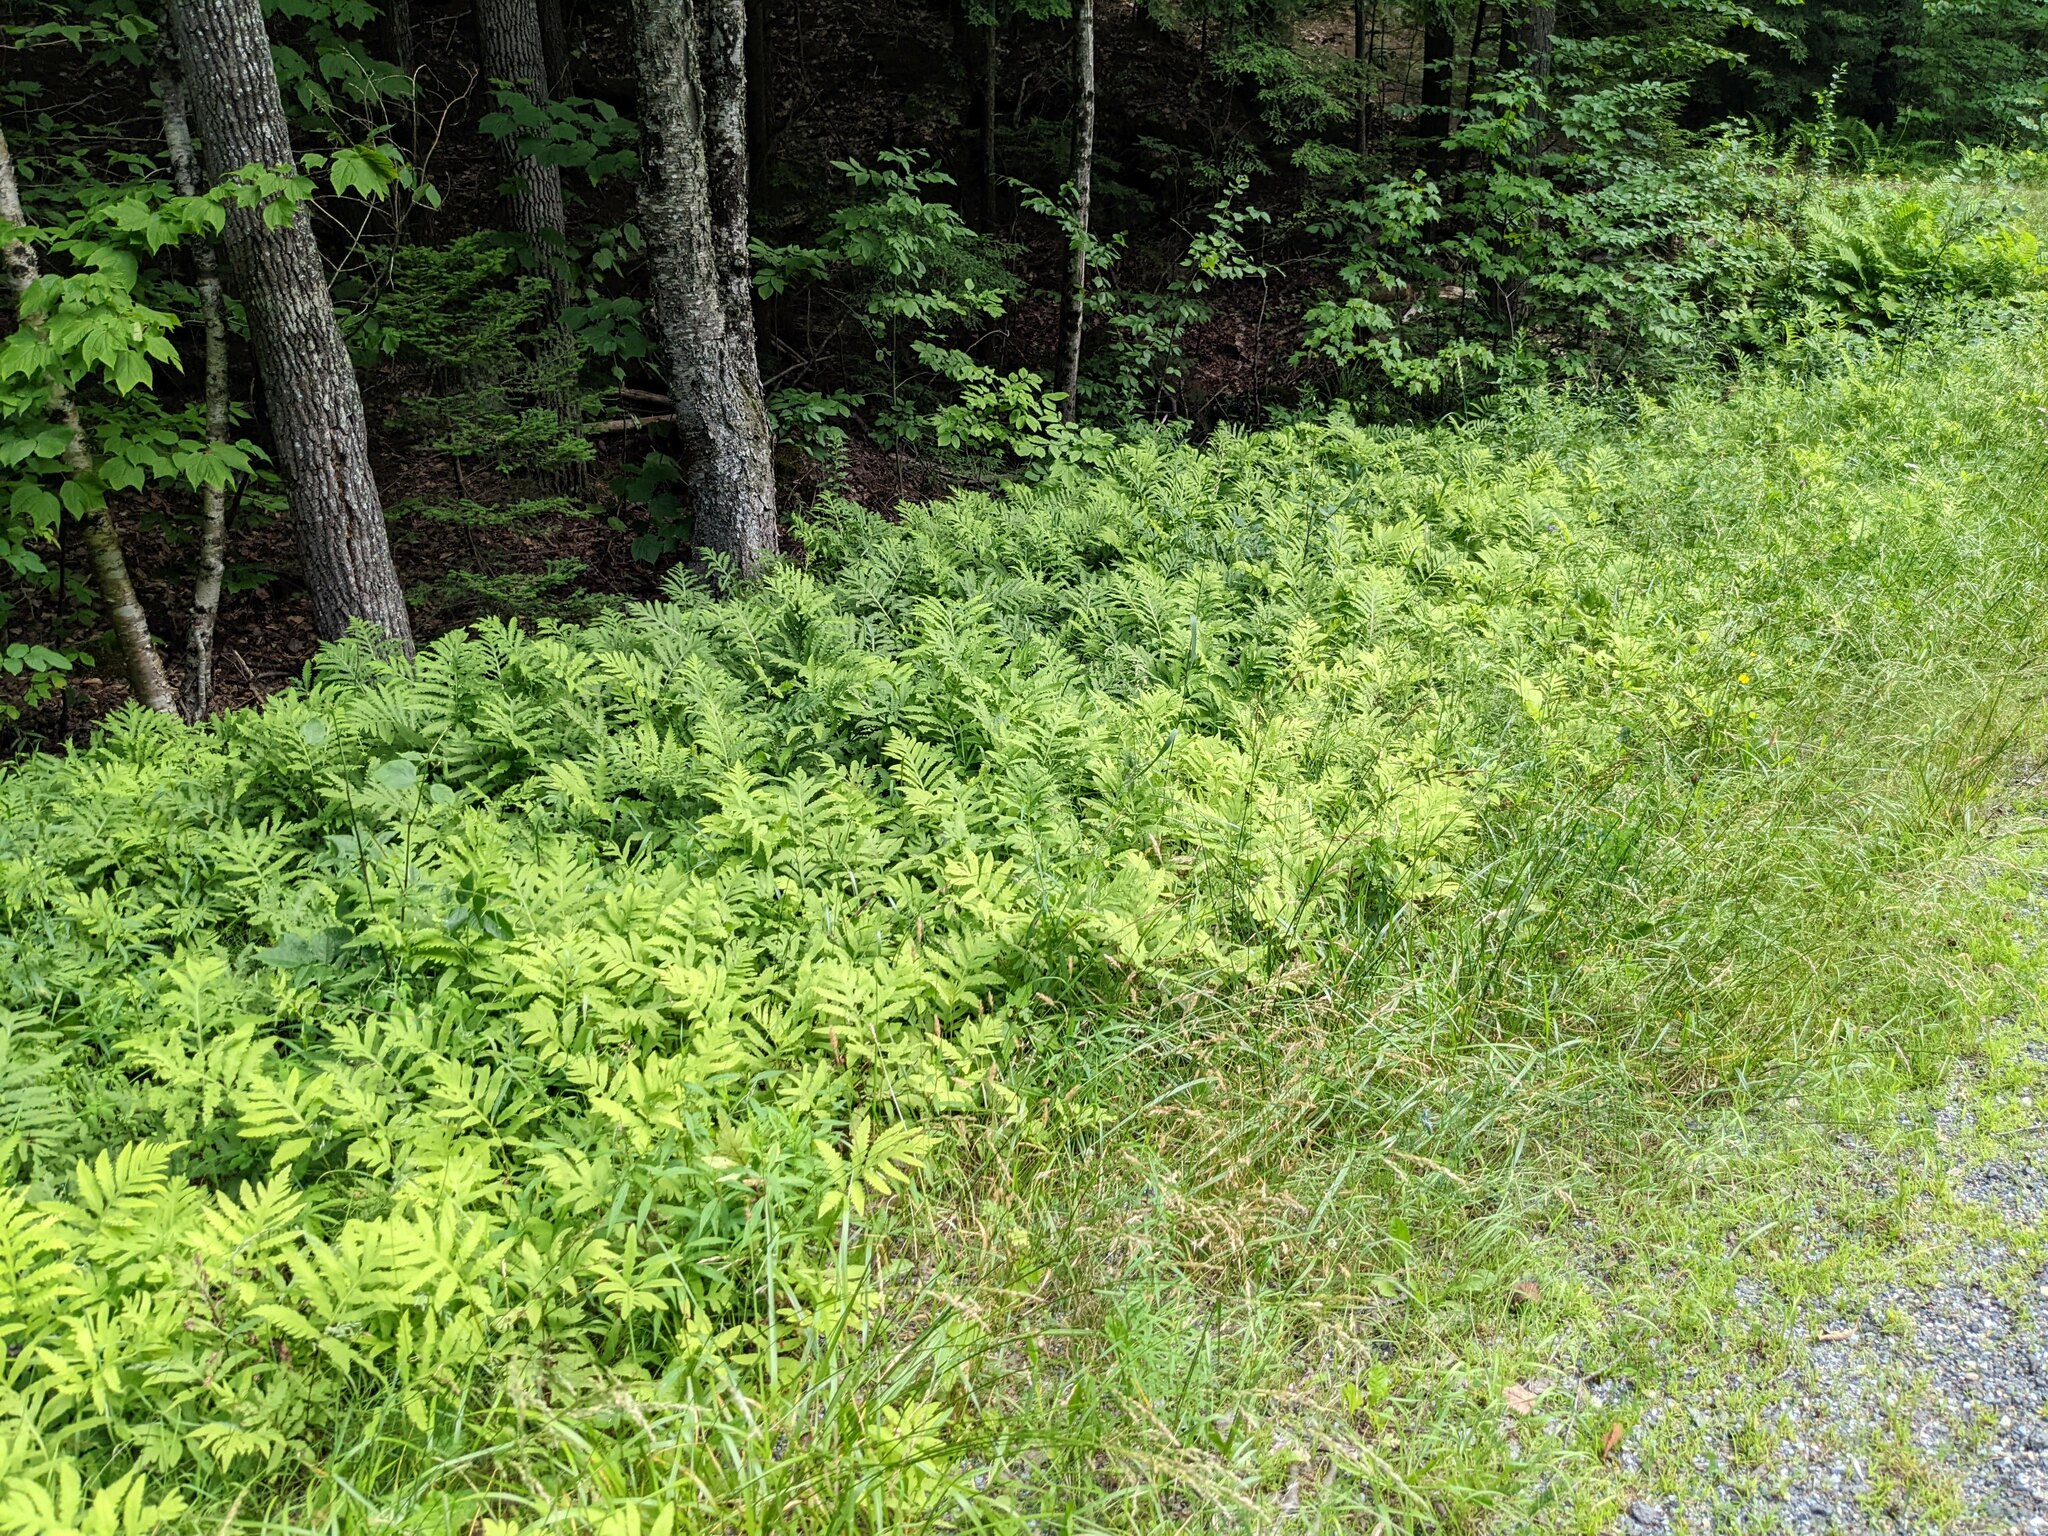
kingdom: Plantae
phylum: Tracheophyta
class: Polypodiopsida
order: Polypodiales
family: Onocleaceae
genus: Onoclea
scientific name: Onoclea sensibilis
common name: Sensitive fern
